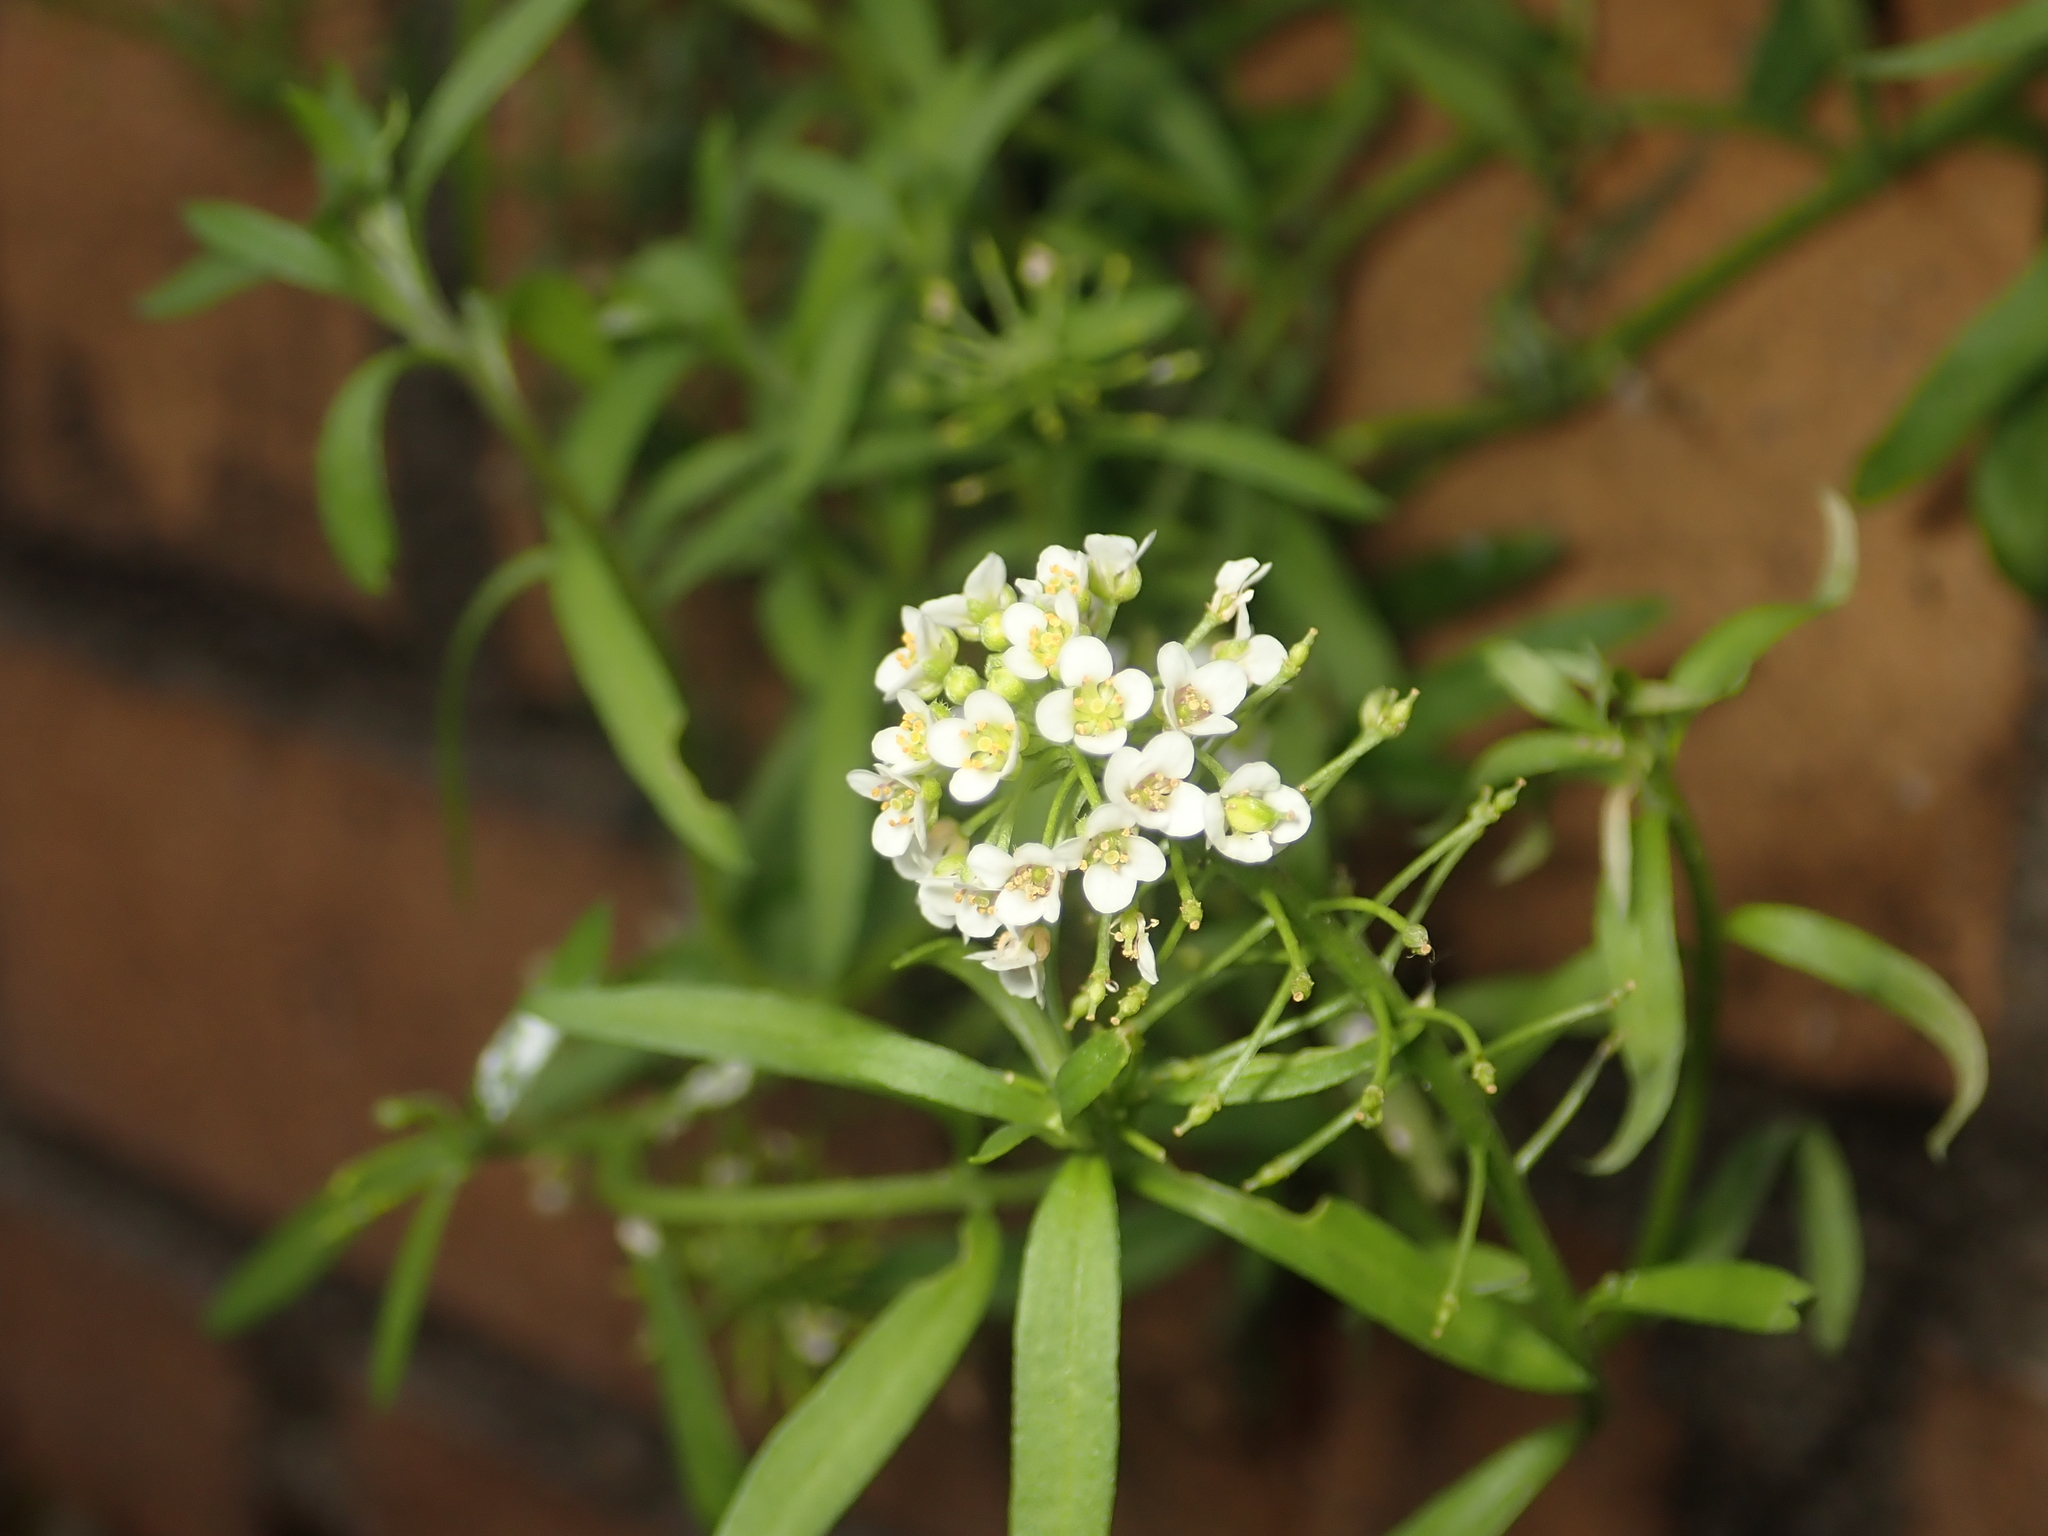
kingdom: Plantae
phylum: Tracheophyta
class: Magnoliopsida
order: Brassicales
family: Brassicaceae
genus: Lobularia
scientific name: Lobularia maritima
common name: Sweet alison
